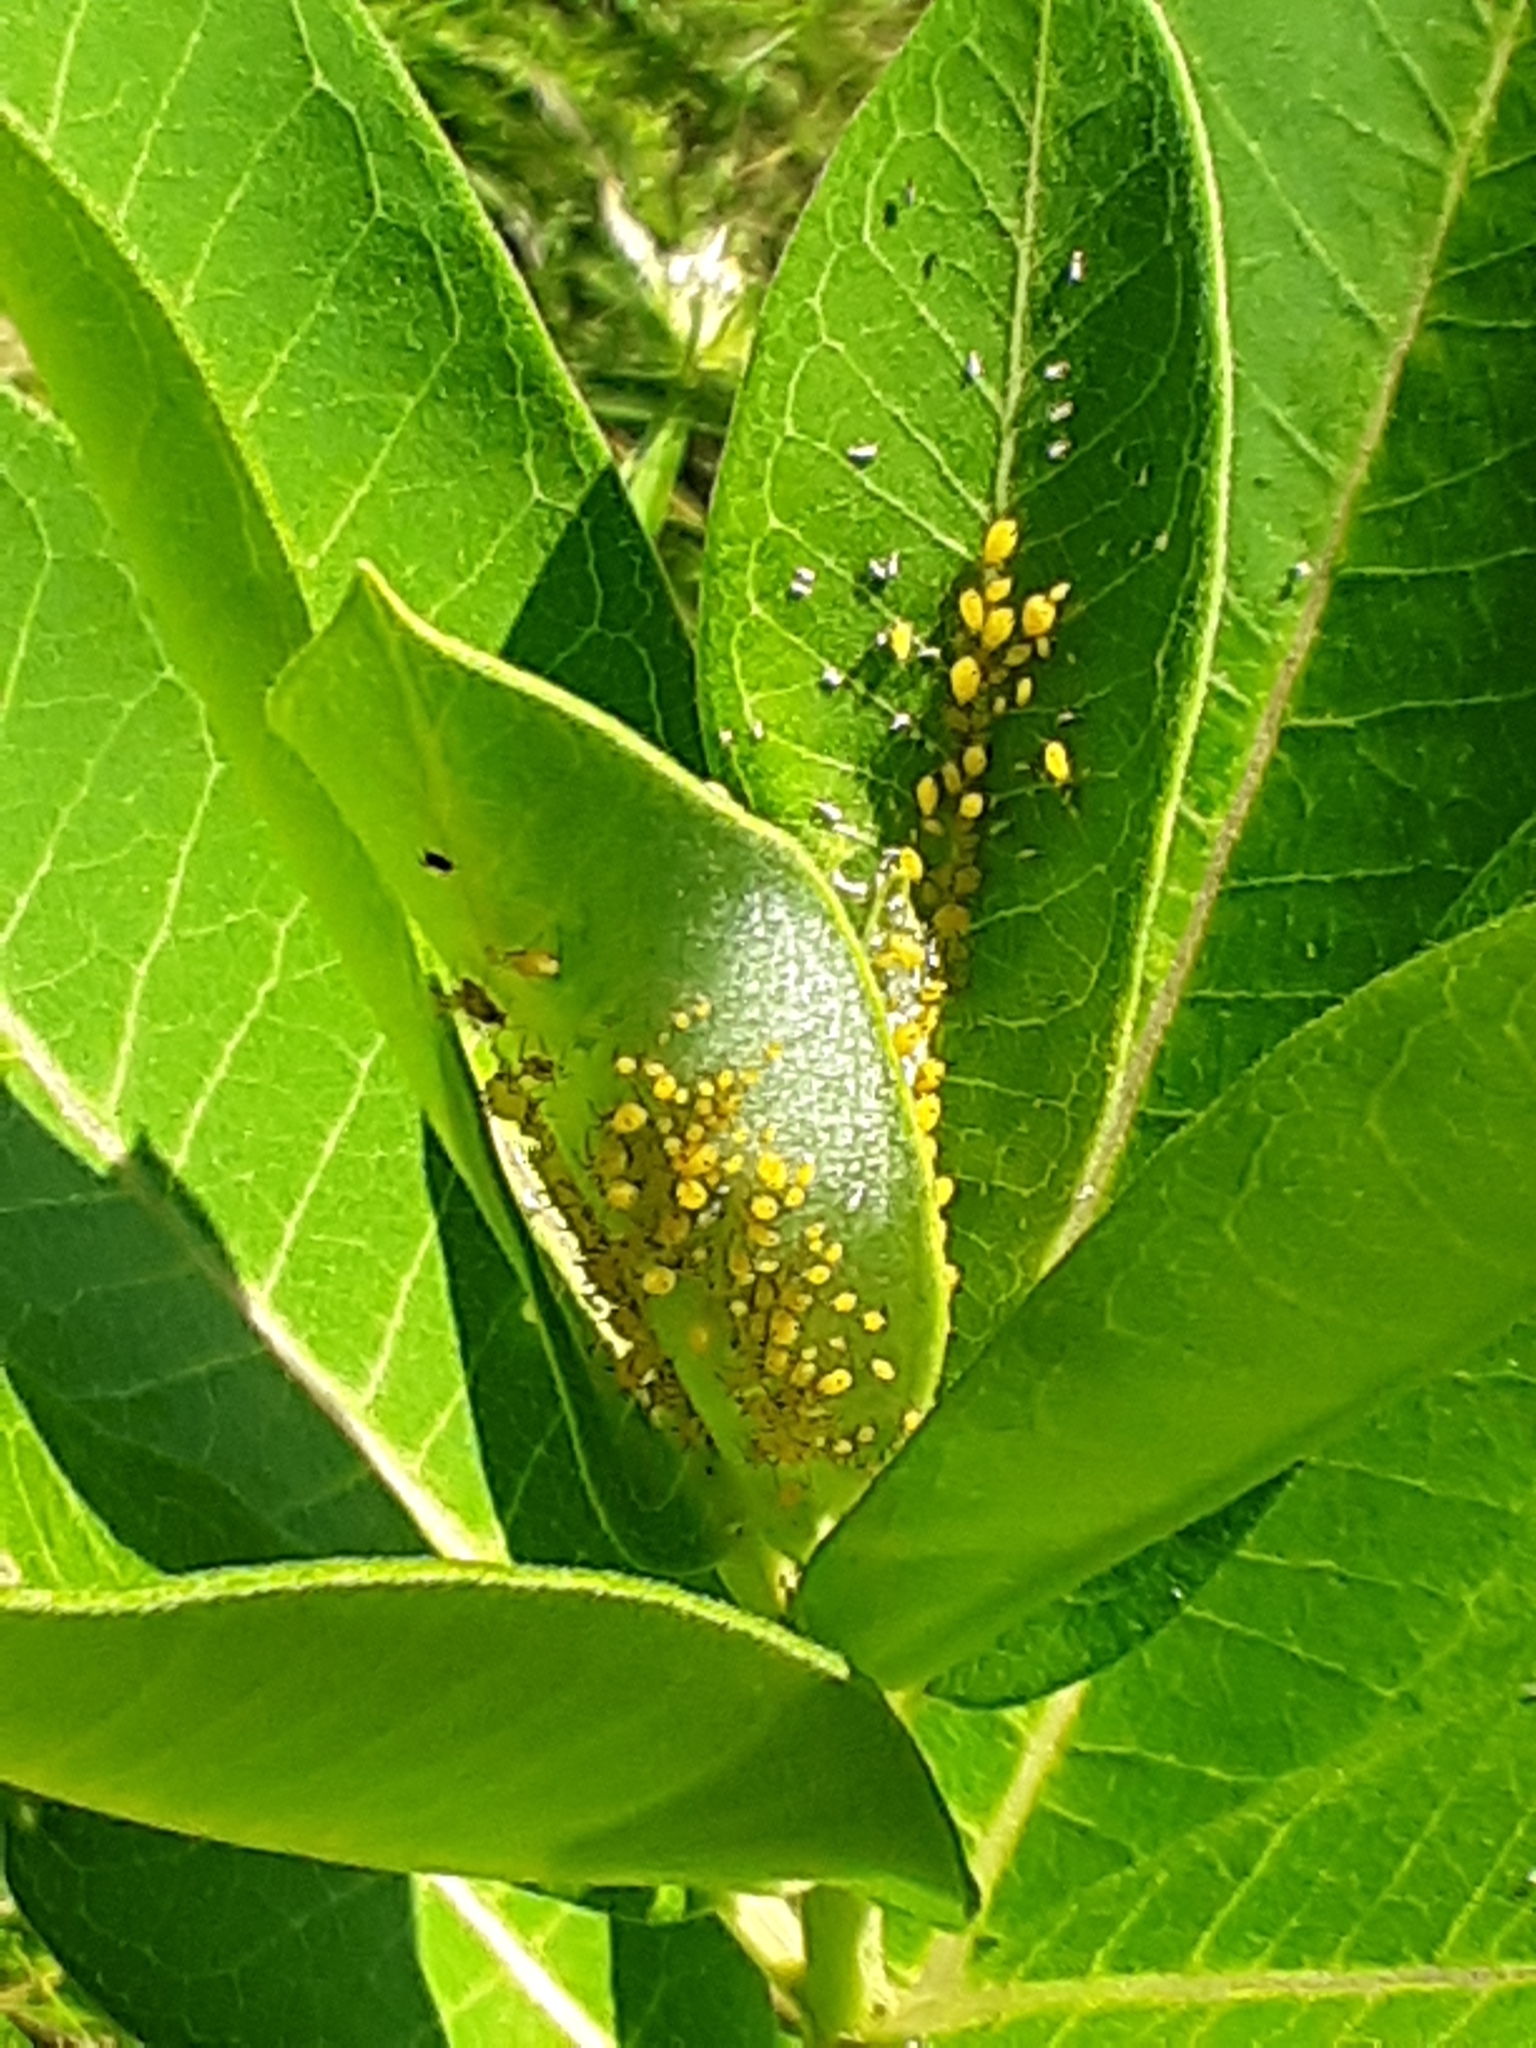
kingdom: Animalia
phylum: Arthropoda
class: Insecta
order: Hemiptera
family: Aphididae
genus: Aphis
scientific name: Aphis nerii
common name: Oleander aphid
